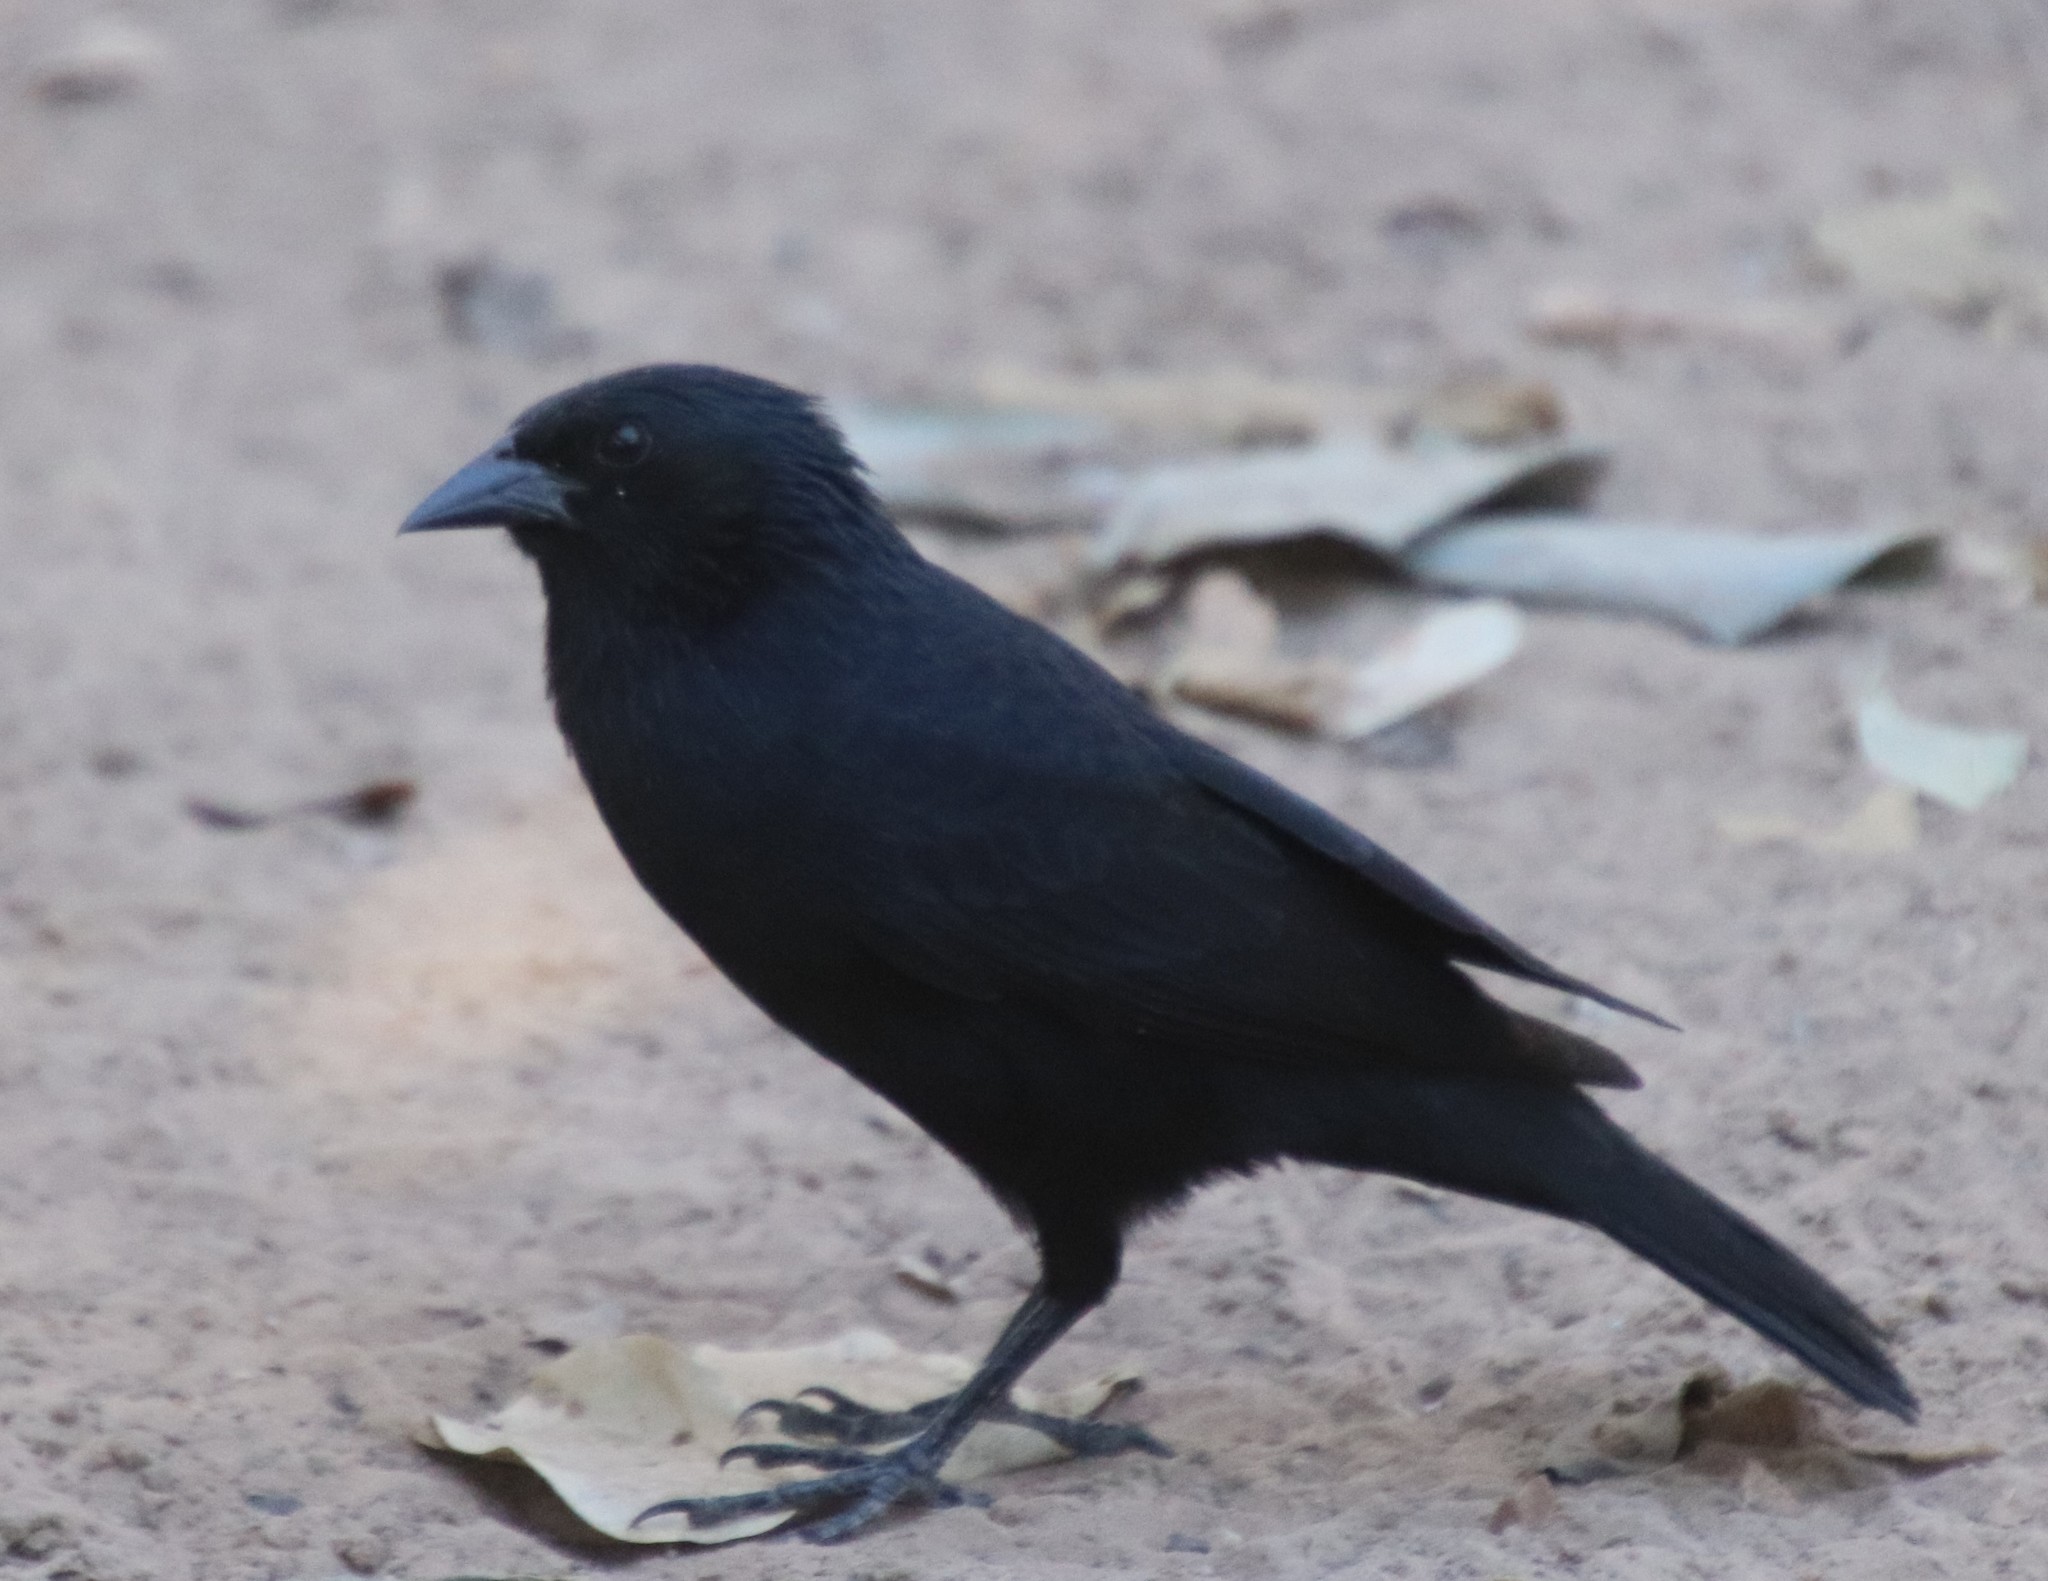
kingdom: Animalia
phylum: Chordata
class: Aves
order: Passeriformes
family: Icteridae
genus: Gnorimopsar
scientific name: Gnorimopsar chopi
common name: Chopi blackbird
